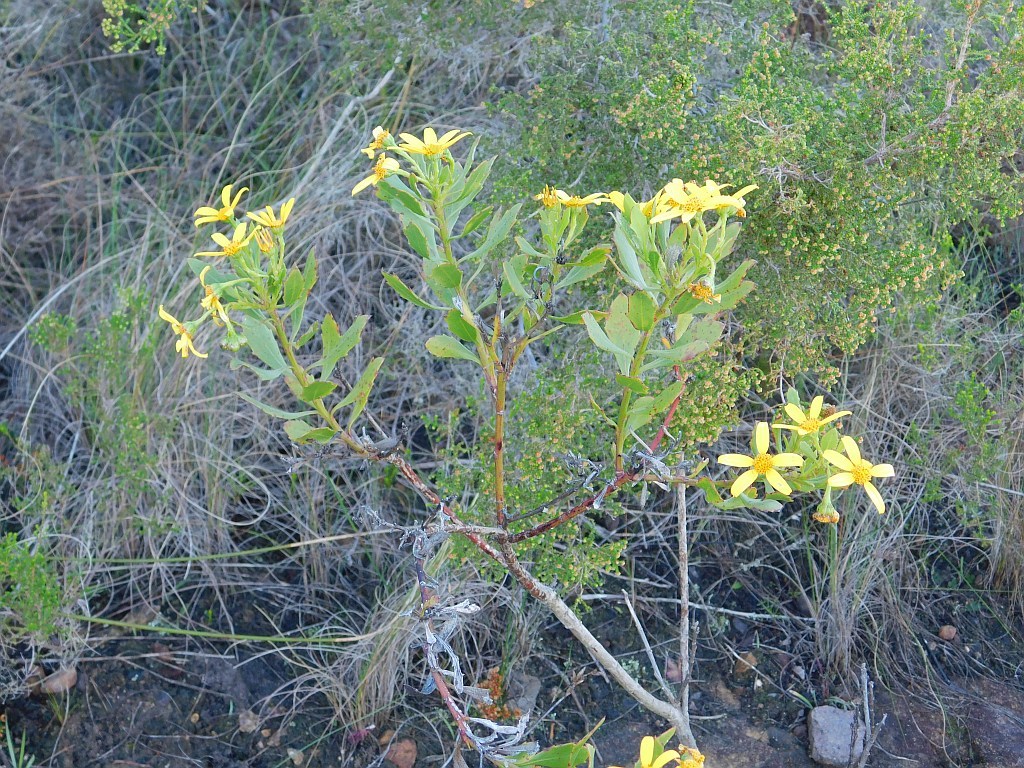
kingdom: Plantae
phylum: Tracheophyta
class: Magnoliopsida
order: Asterales
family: Asteraceae
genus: Osteospermum
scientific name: Osteospermum moniliferum
